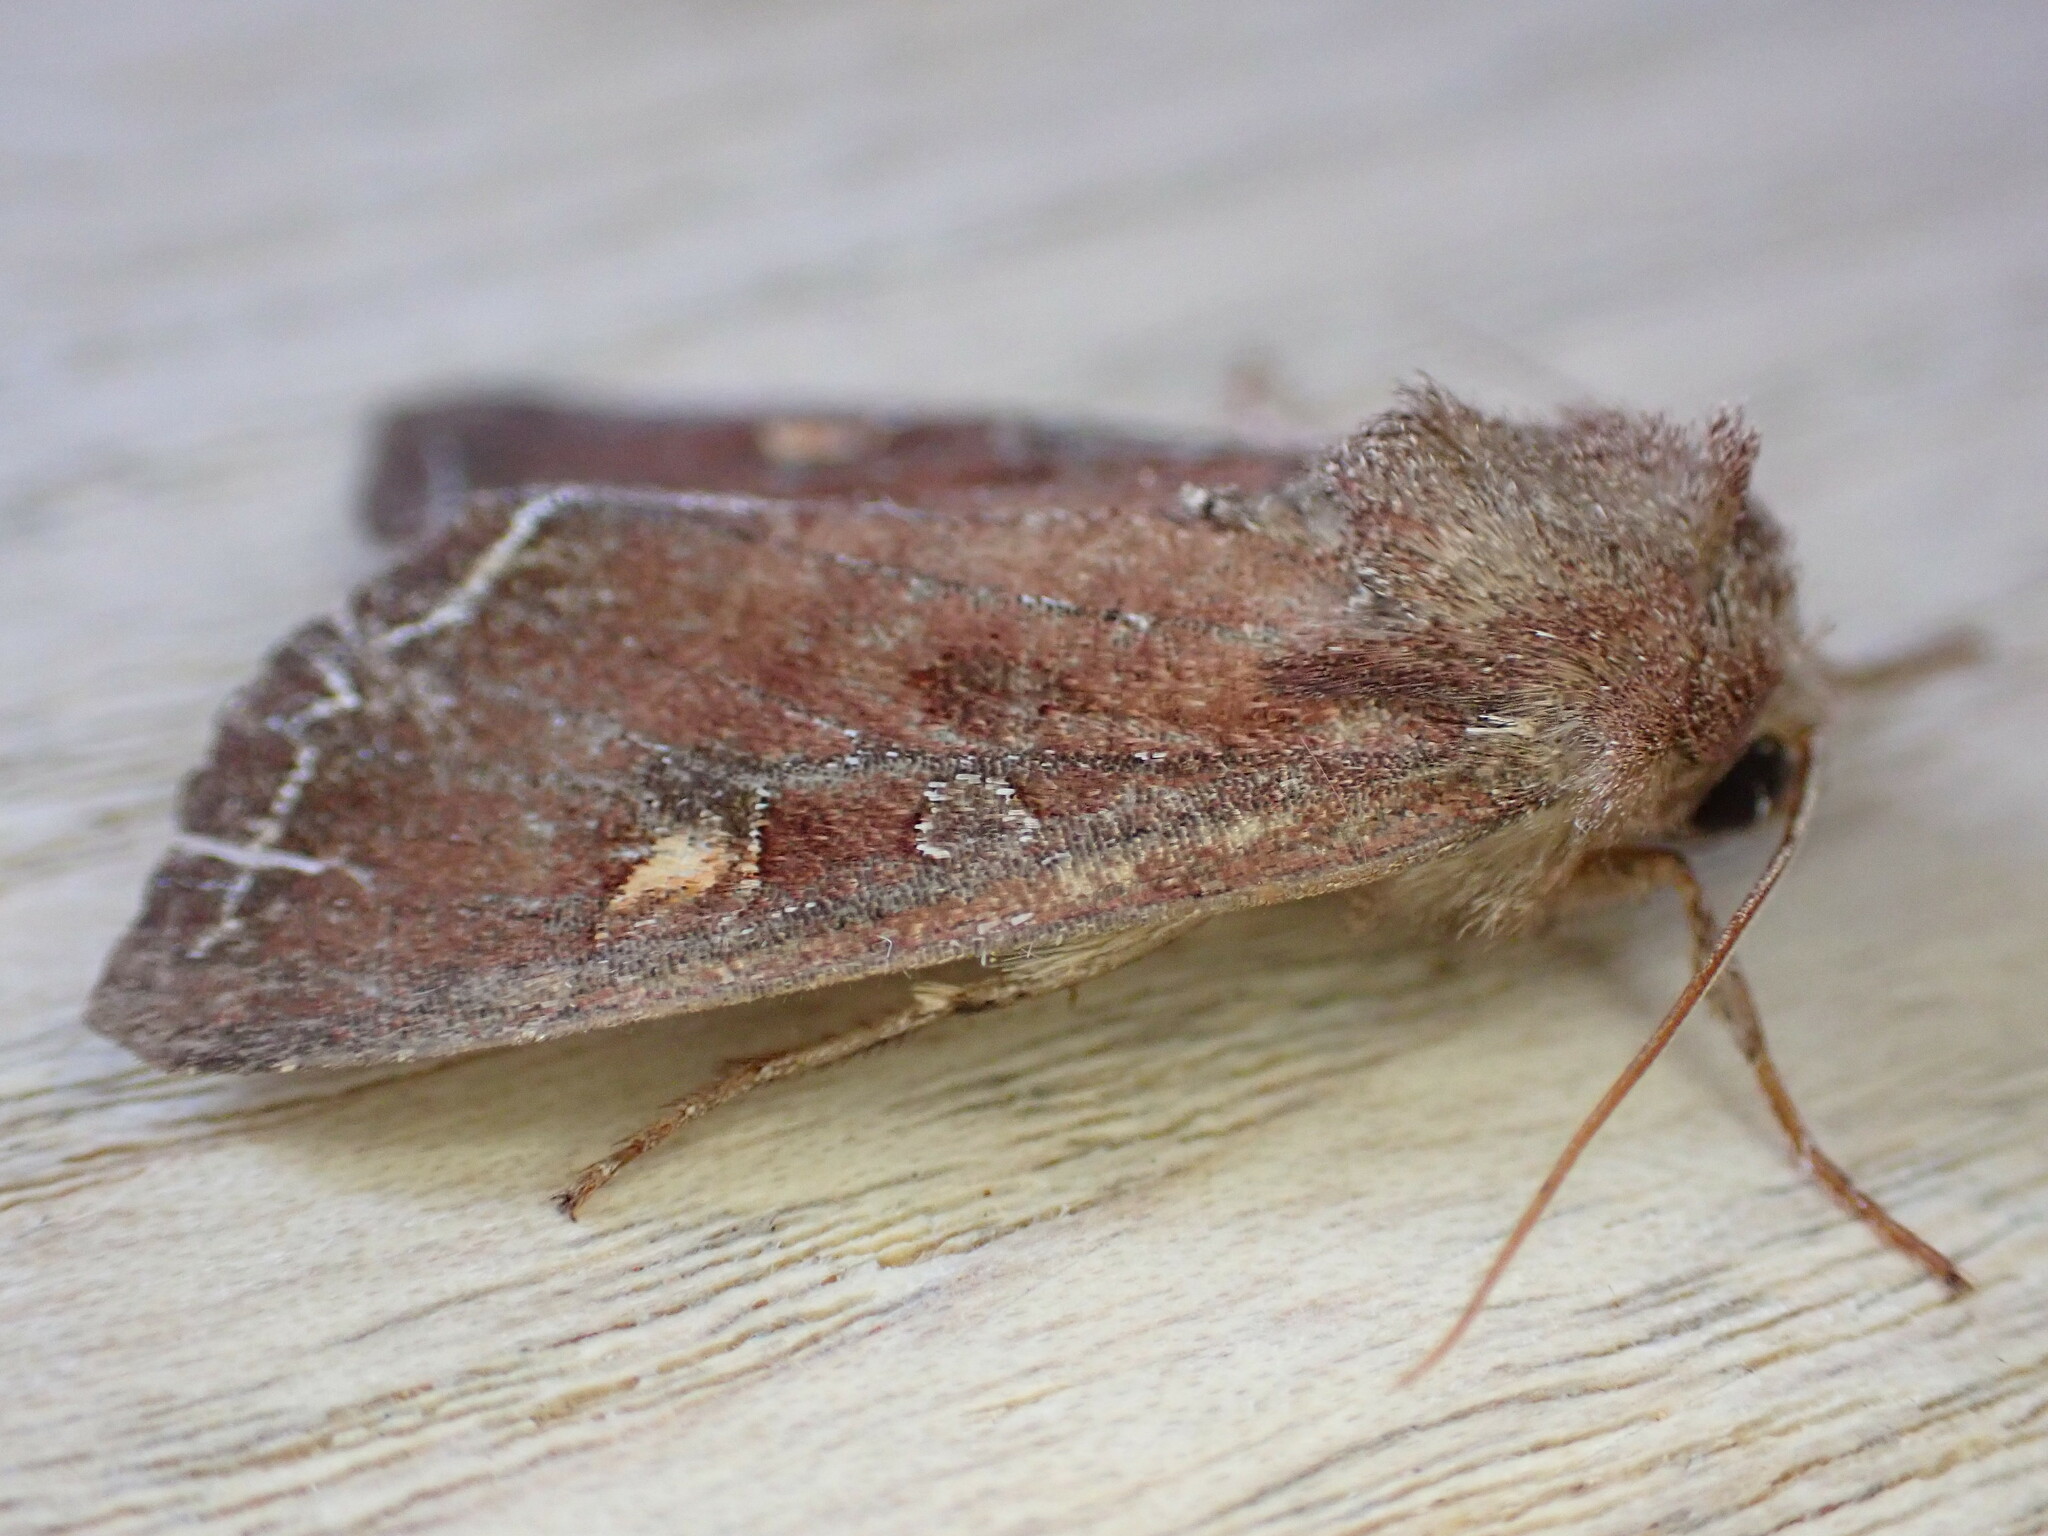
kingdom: Animalia
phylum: Arthropoda
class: Insecta
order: Lepidoptera
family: Noctuidae
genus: Lacanobia
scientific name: Lacanobia oleracea
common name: Bright-line brown-eye
